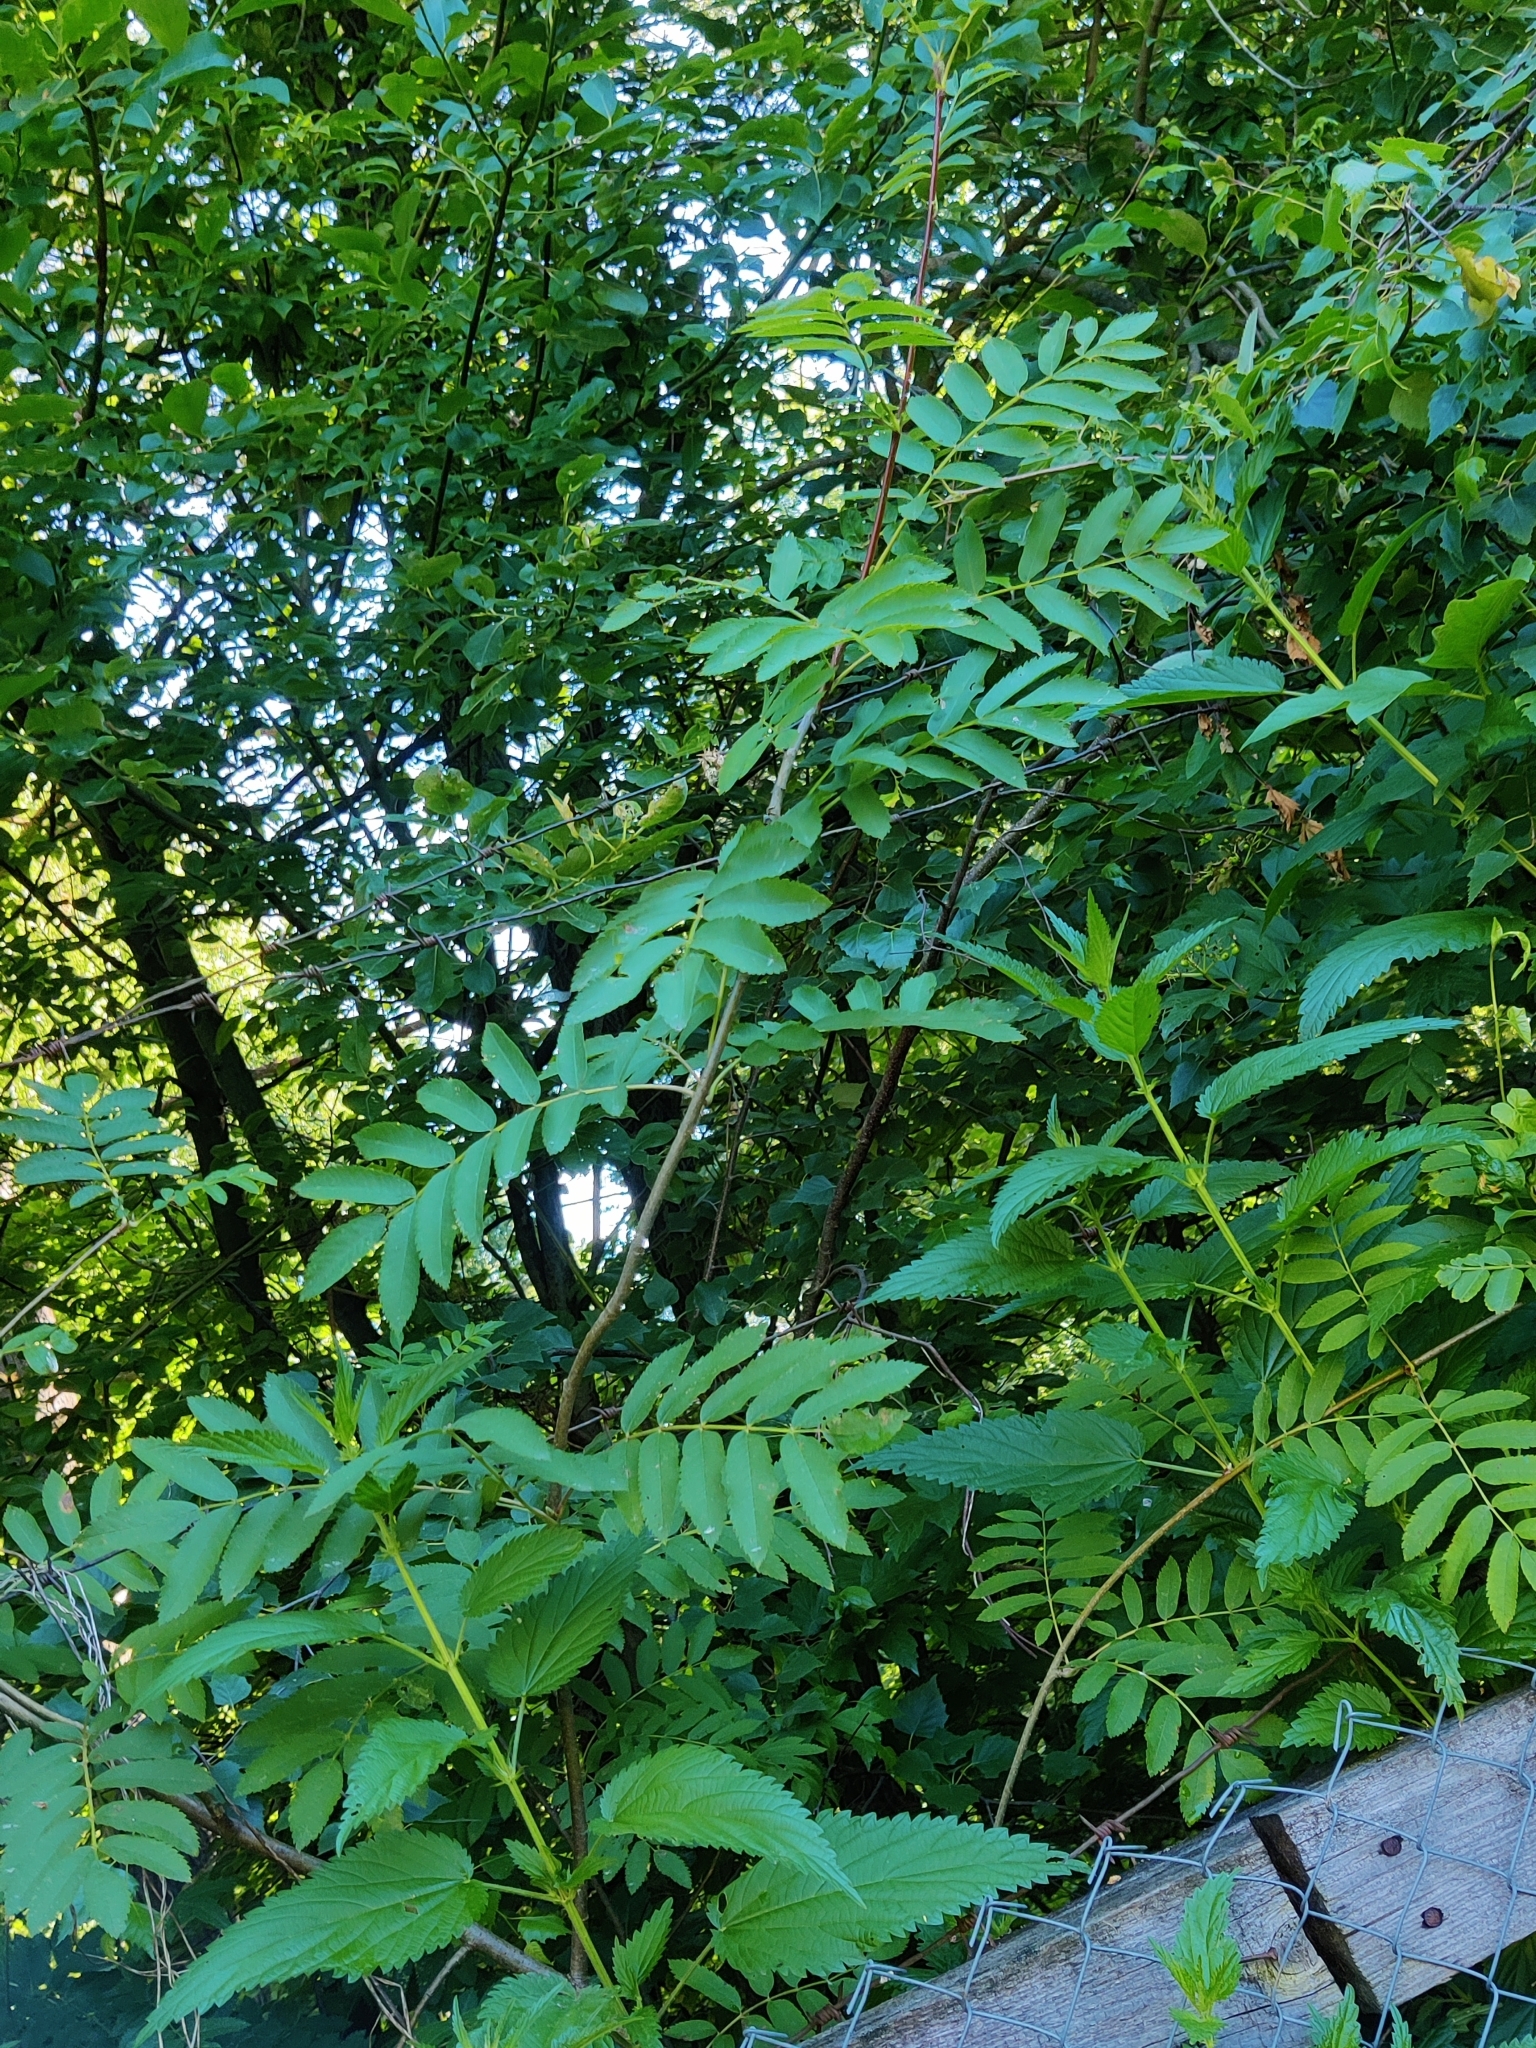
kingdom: Plantae
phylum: Tracheophyta
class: Magnoliopsida
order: Rosales
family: Rosaceae
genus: Sorbus
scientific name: Sorbus aucuparia
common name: Rowan
